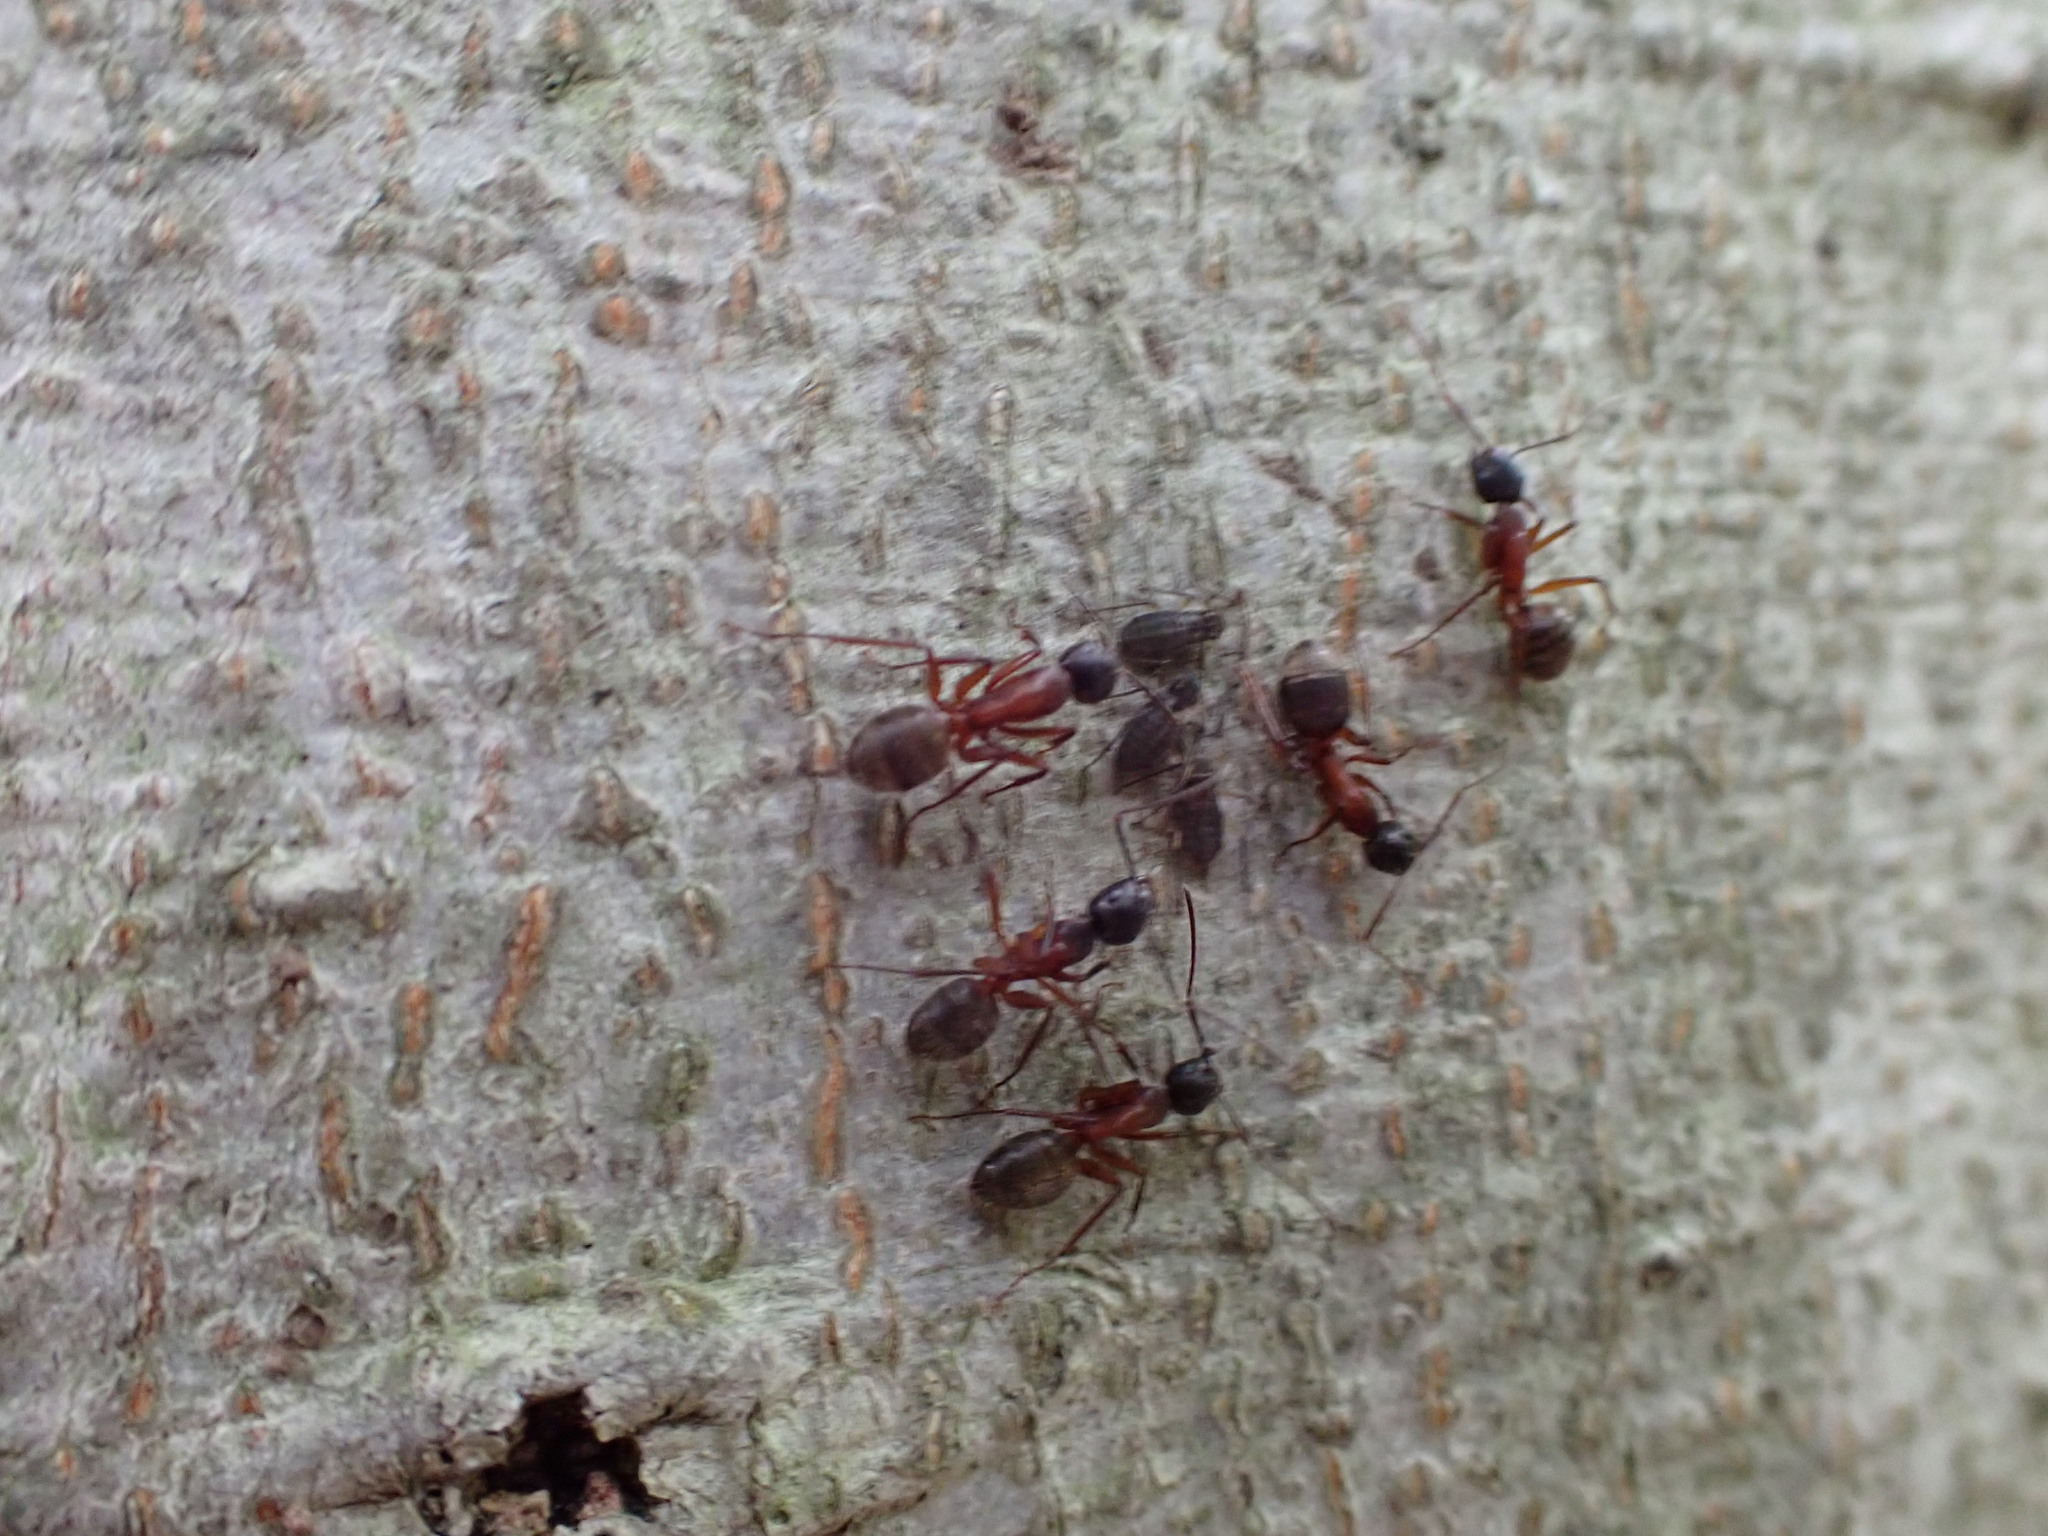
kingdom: Animalia
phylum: Arthropoda
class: Insecta
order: Hymenoptera
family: Formicidae
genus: Camponotus
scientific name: Camponotus chromaiodes
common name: Red carpenter ant
